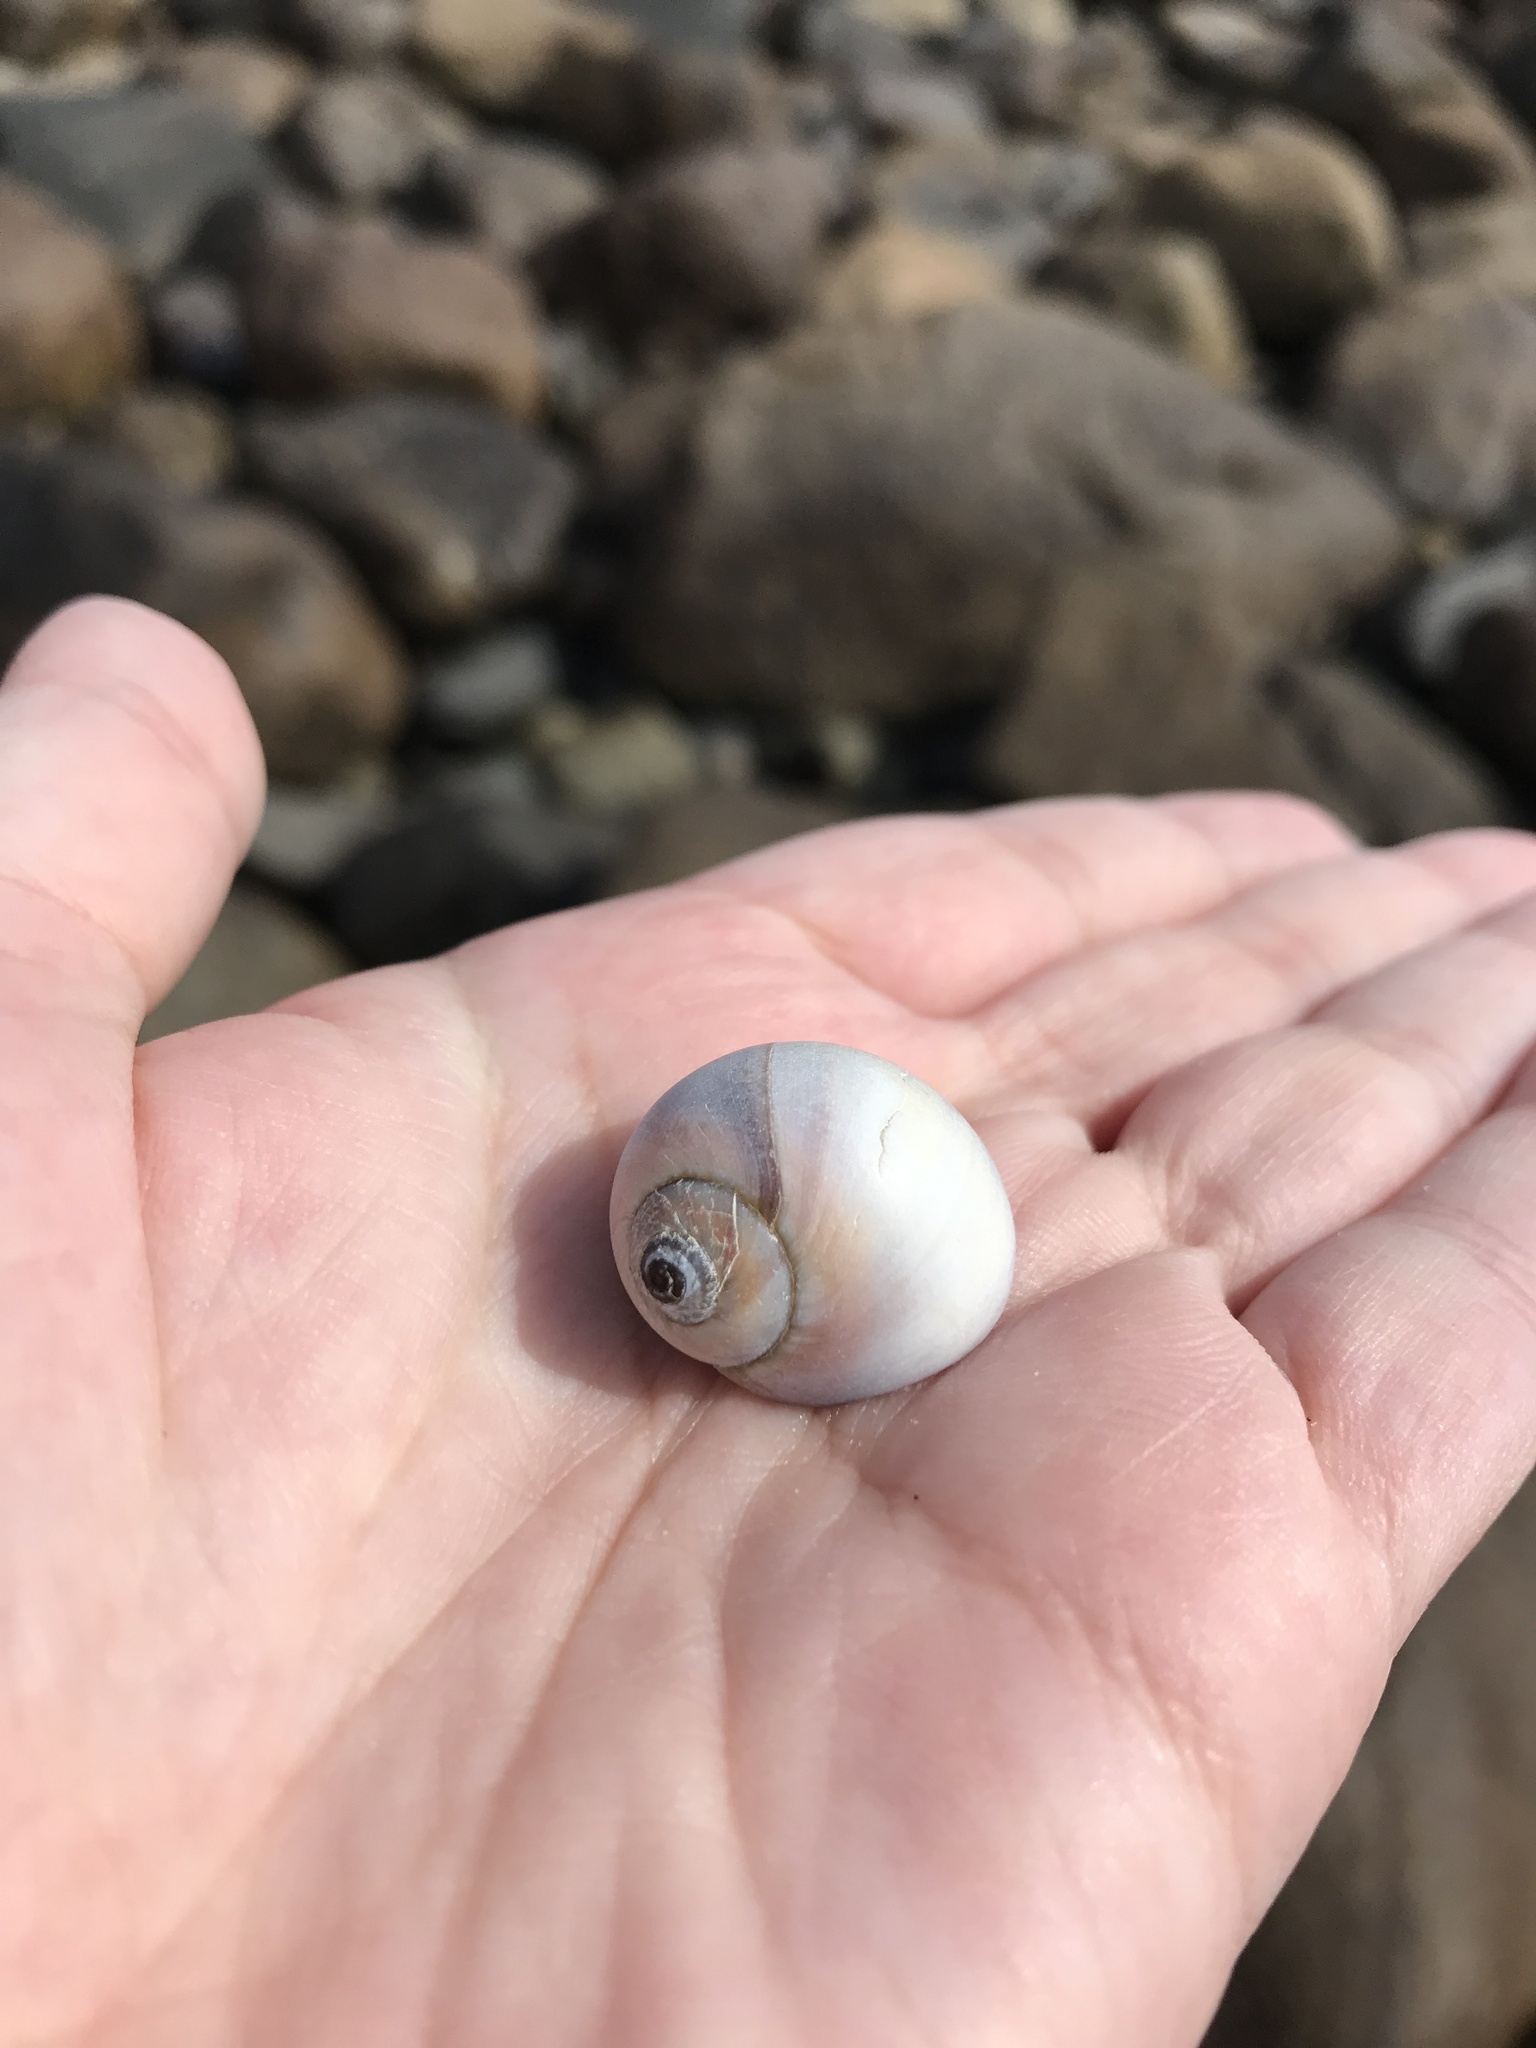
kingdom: Animalia
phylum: Mollusca
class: Gastropoda
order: Littorinimorpha
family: Naticidae
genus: Euspira
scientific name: Euspira heros
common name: Common northern moonsnail
